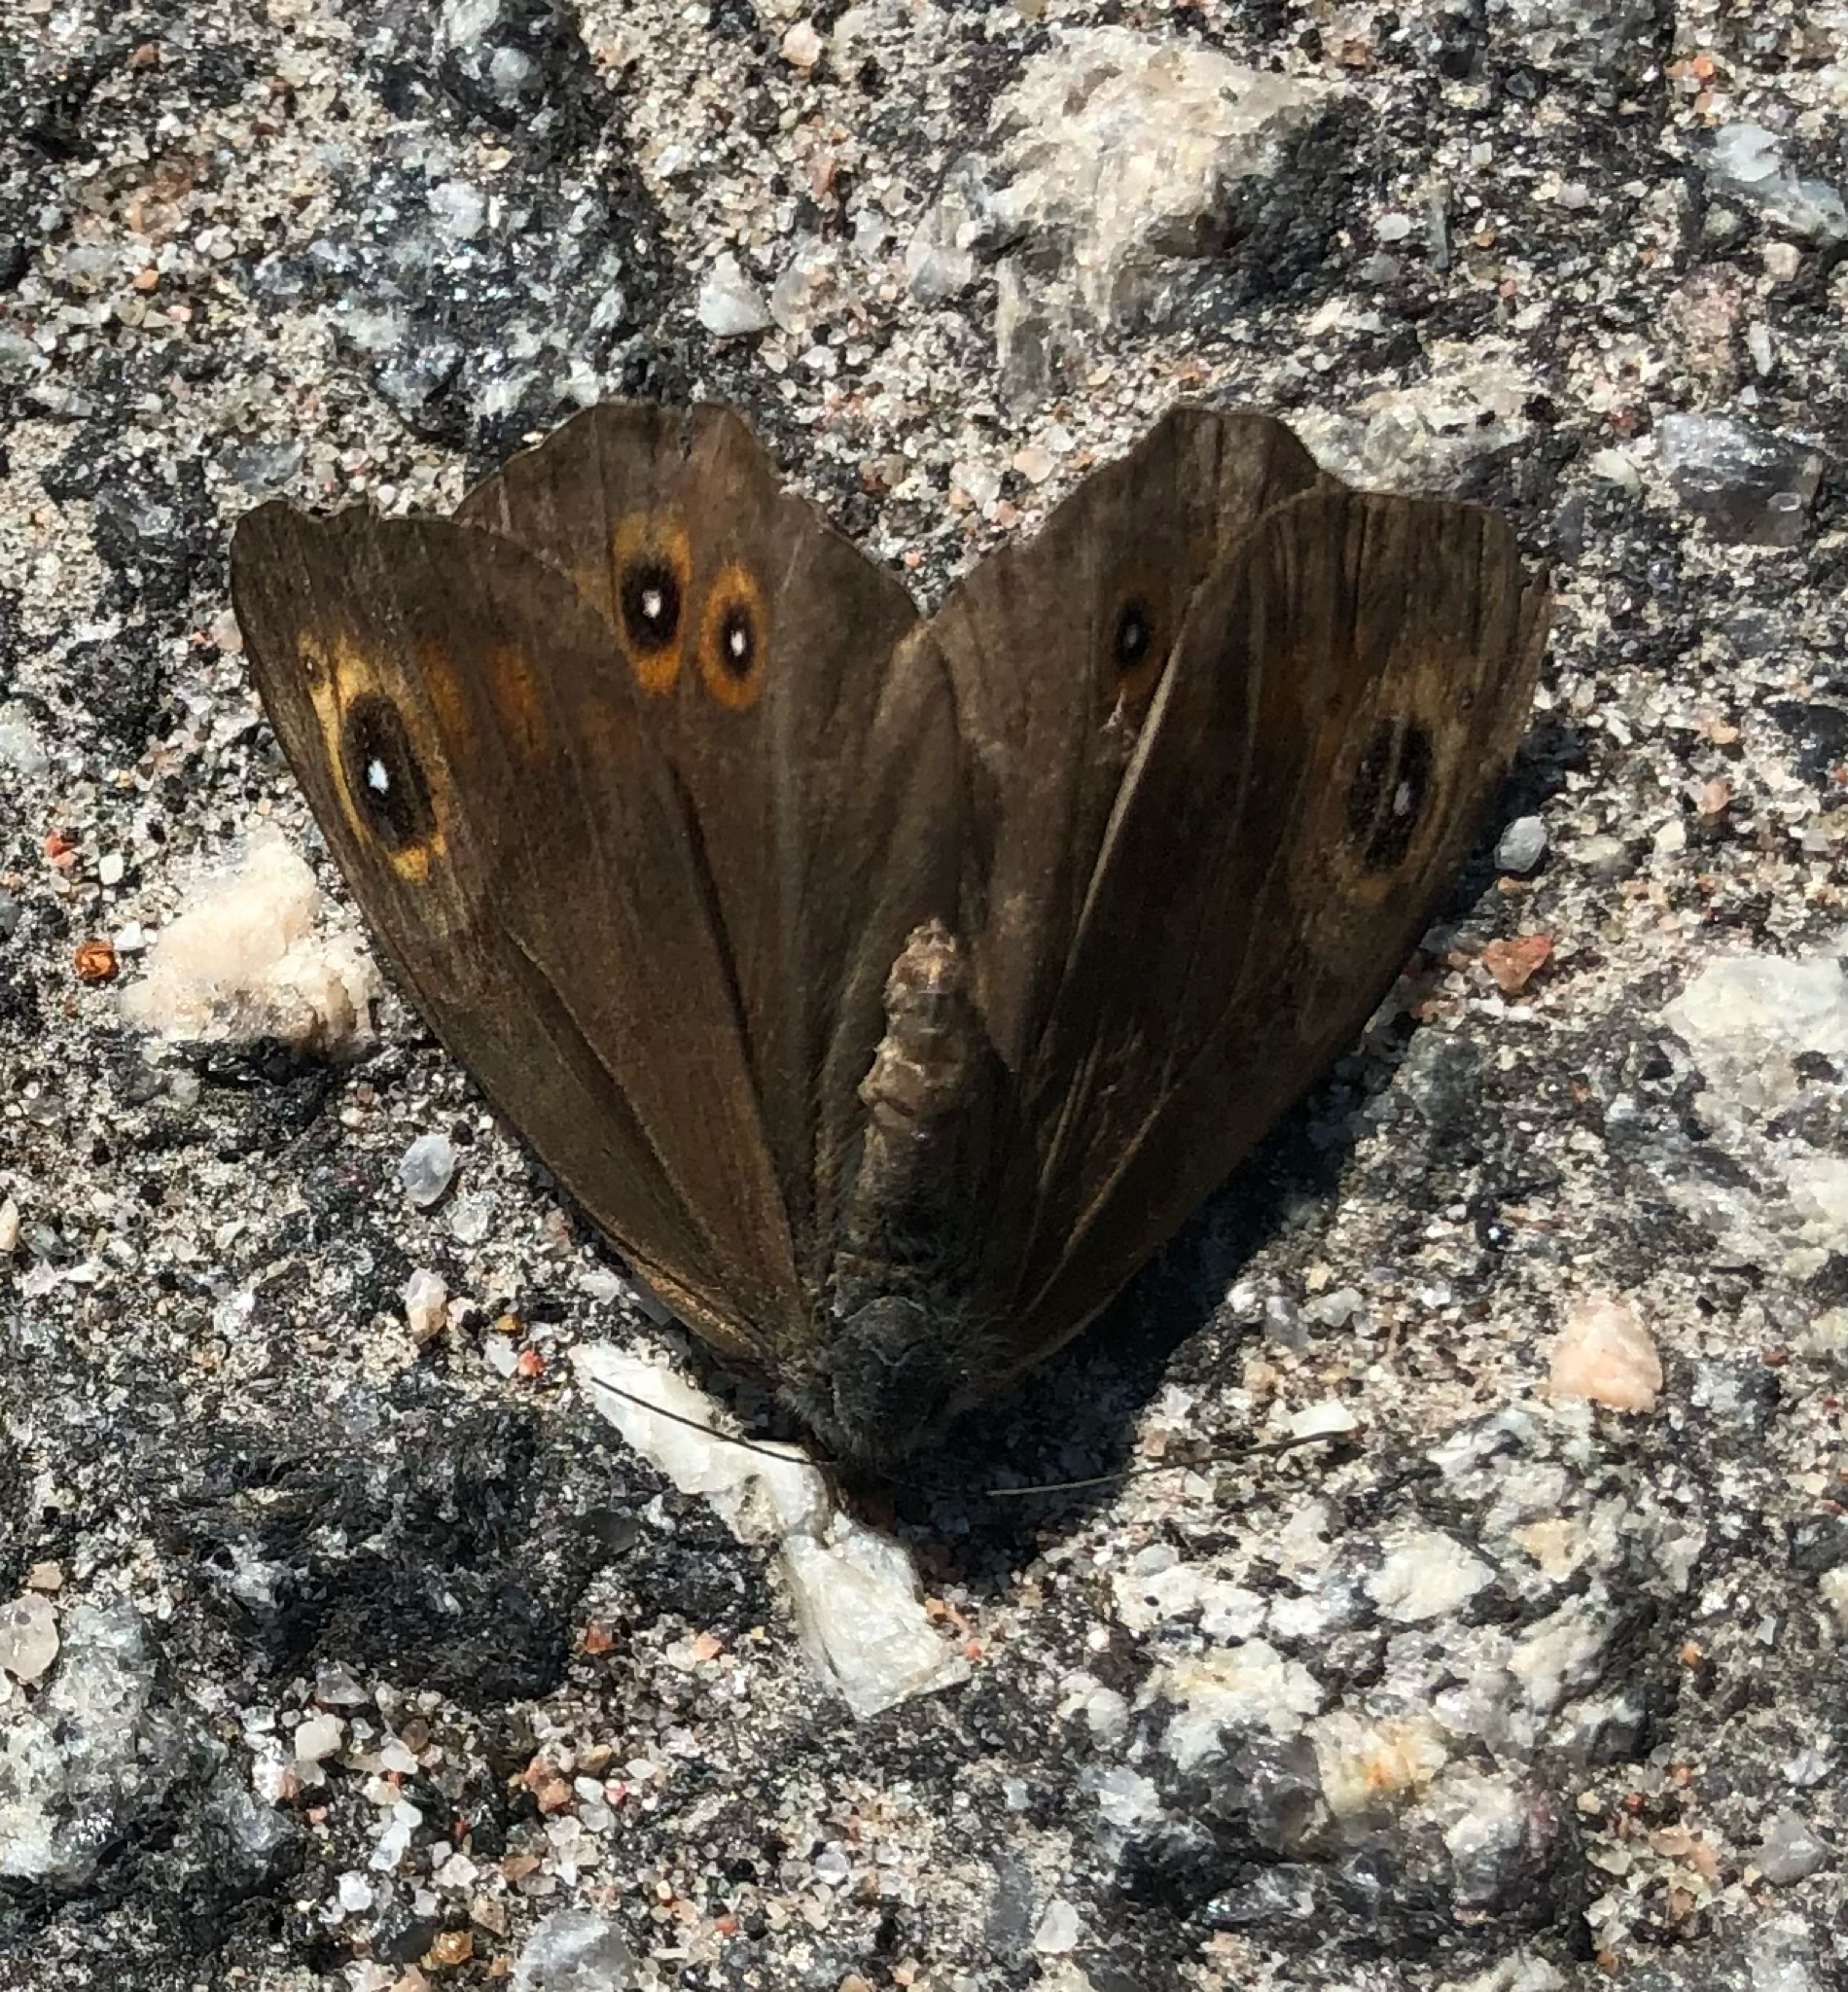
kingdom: Animalia
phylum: Arthropoda
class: Insecta
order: Lepidoptera
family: Nymphalidae
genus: Pararge
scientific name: Pararge Lasiommata maera
